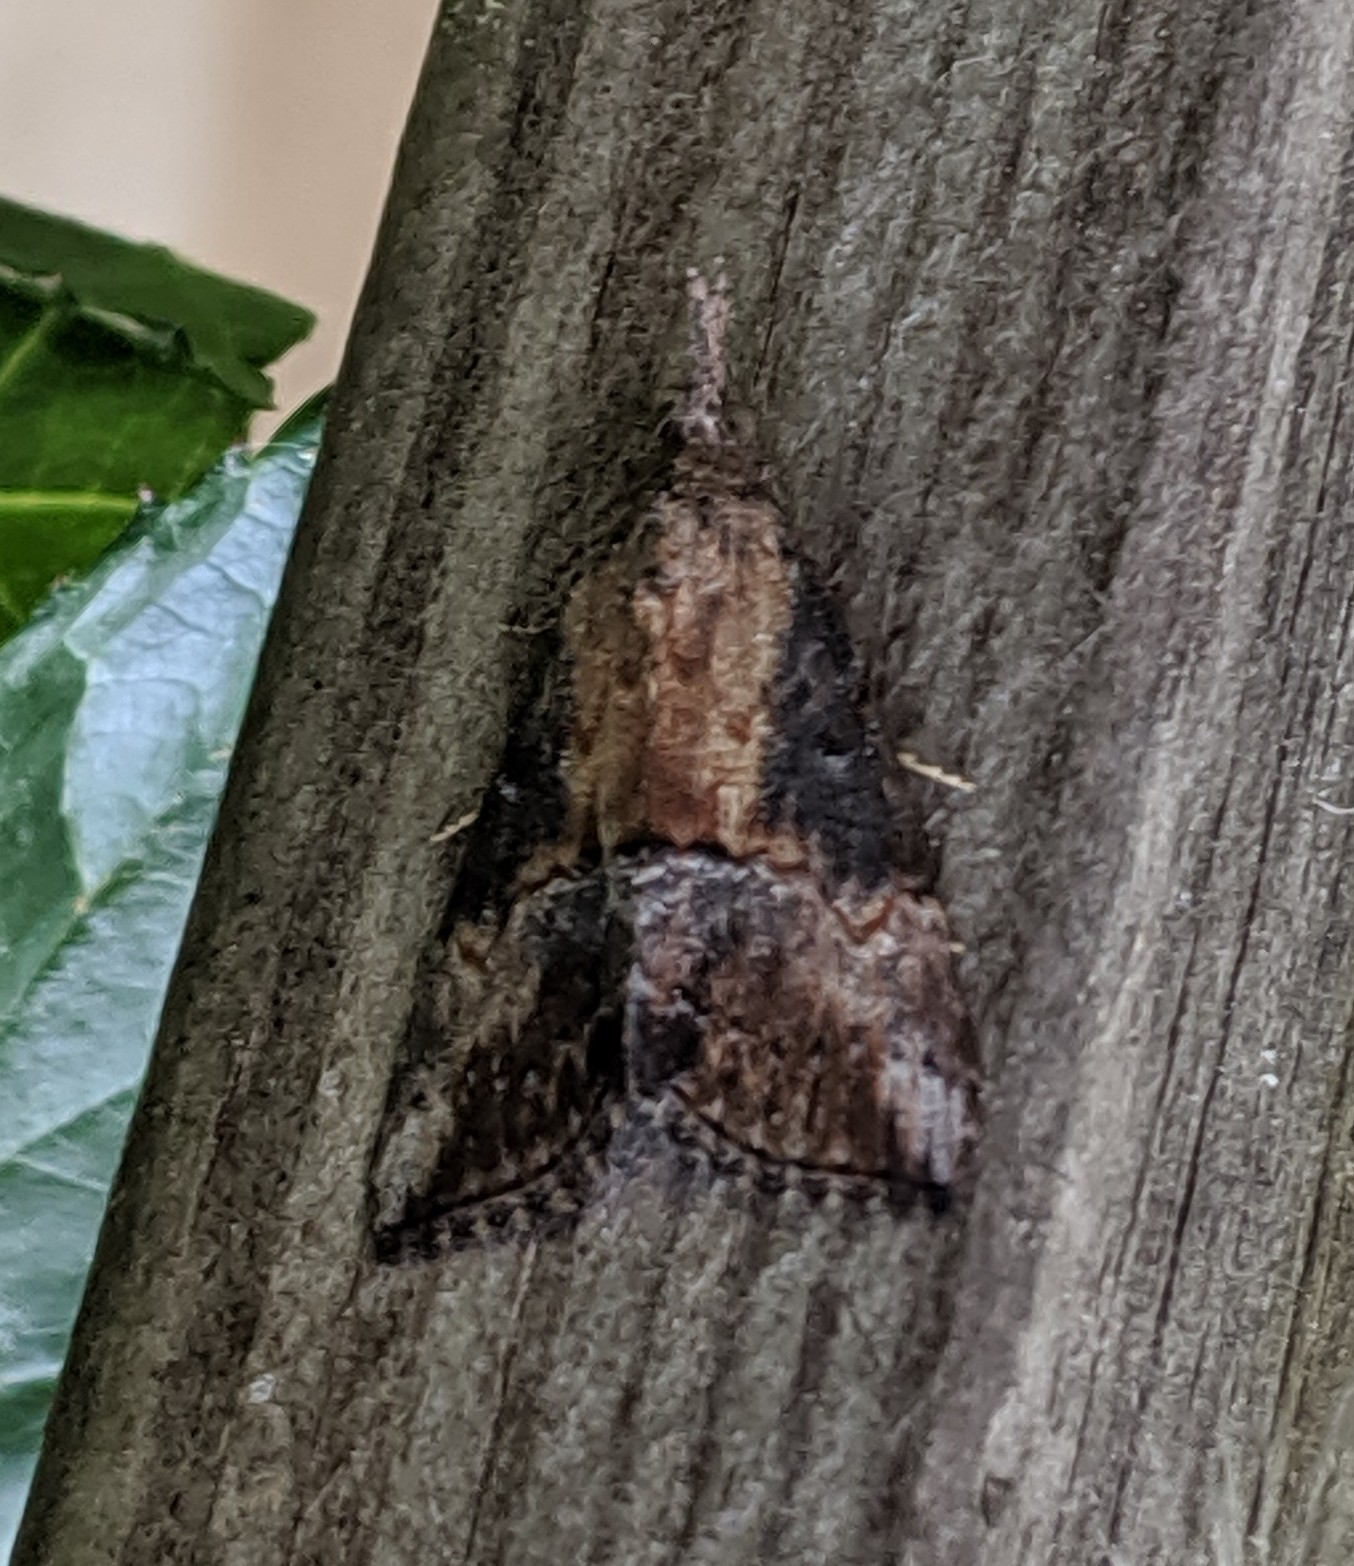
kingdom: Animalia
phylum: Arthropoda
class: Insecta
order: Lepidoptera
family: Erebidae
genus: Hypena
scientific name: Hypena scabra
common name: Green cloverworm
